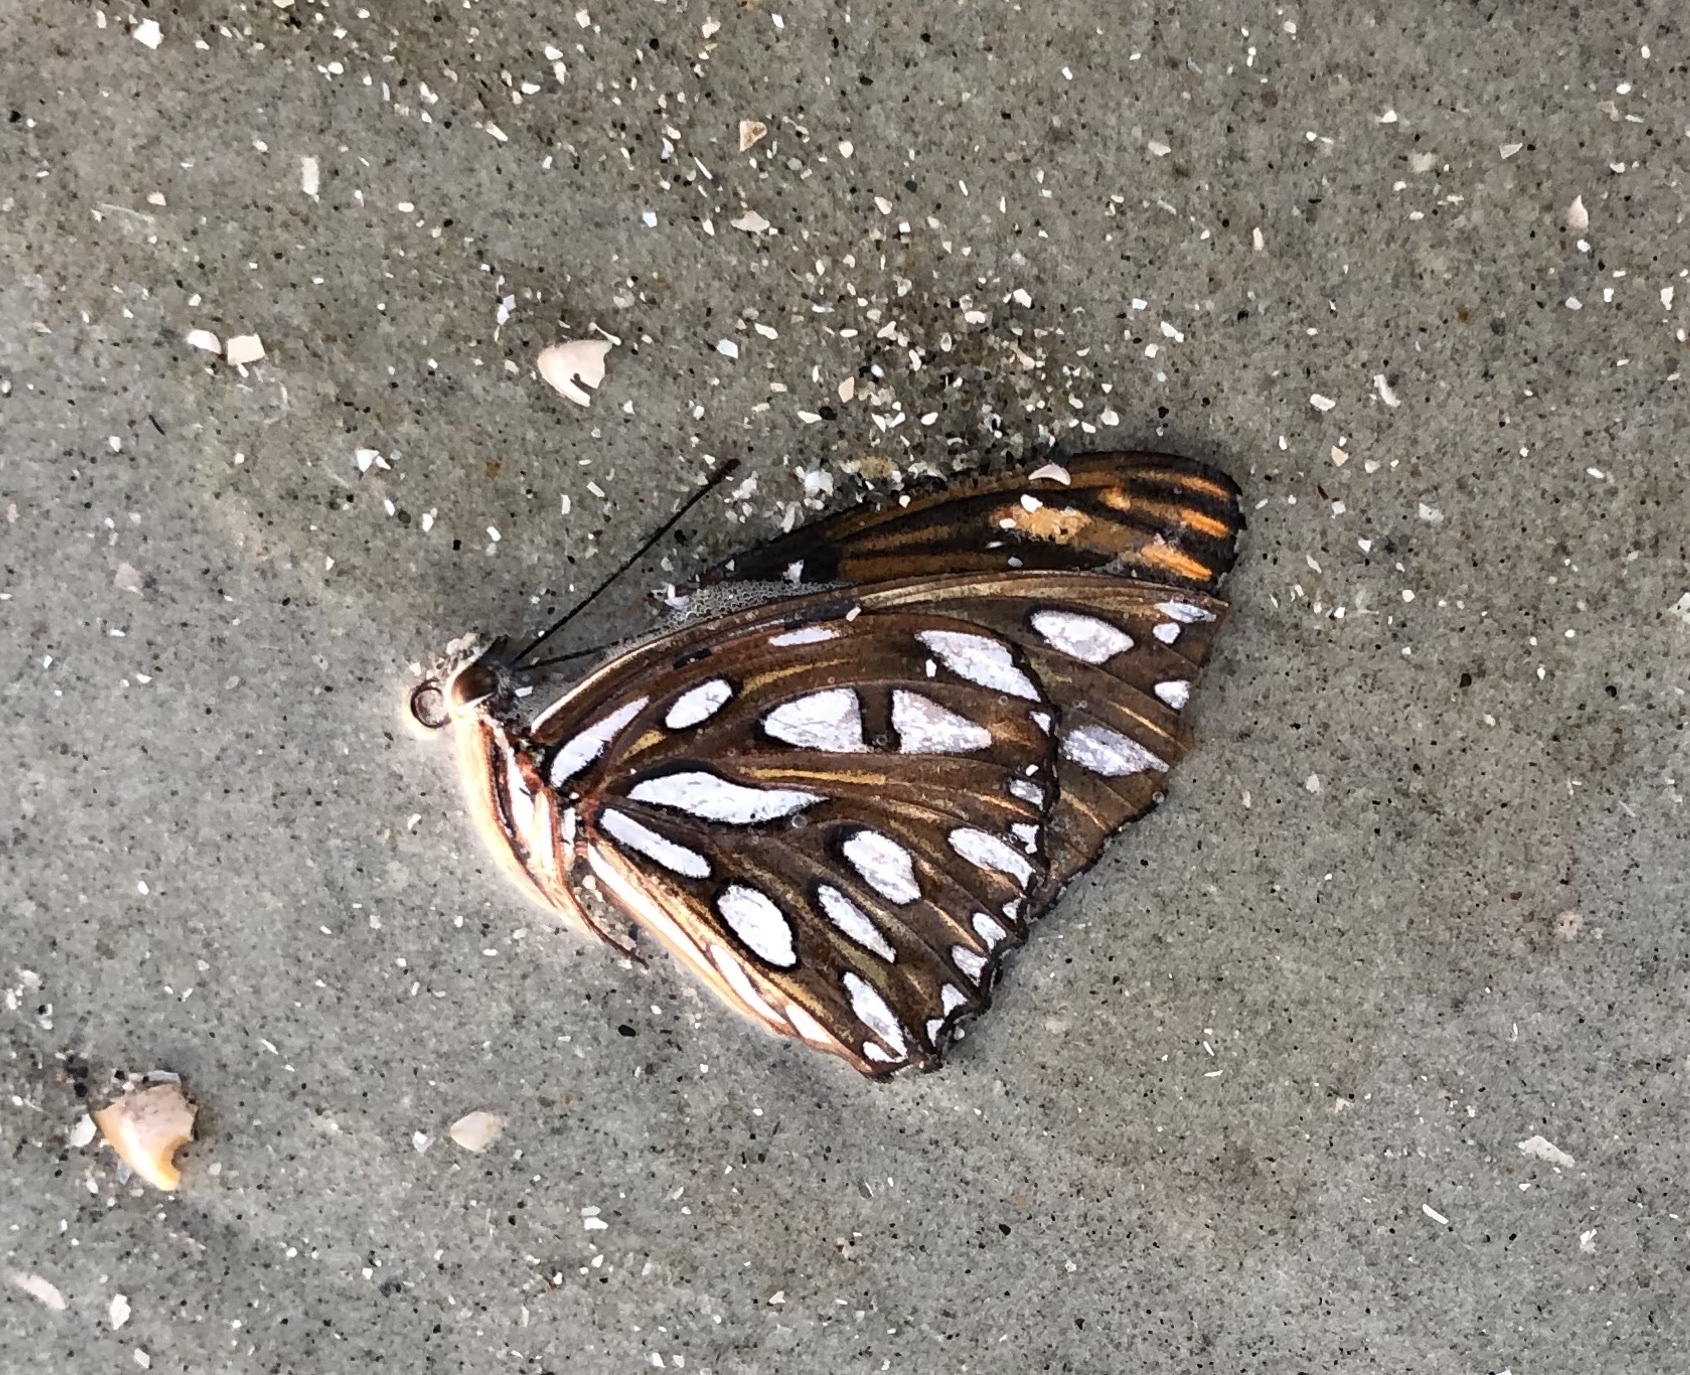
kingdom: Animalia
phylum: Arthropoda
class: Insecta
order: Lepidoptera
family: Nymphalidae
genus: Dione
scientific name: Dione vanillae
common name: Gulf fritillary
